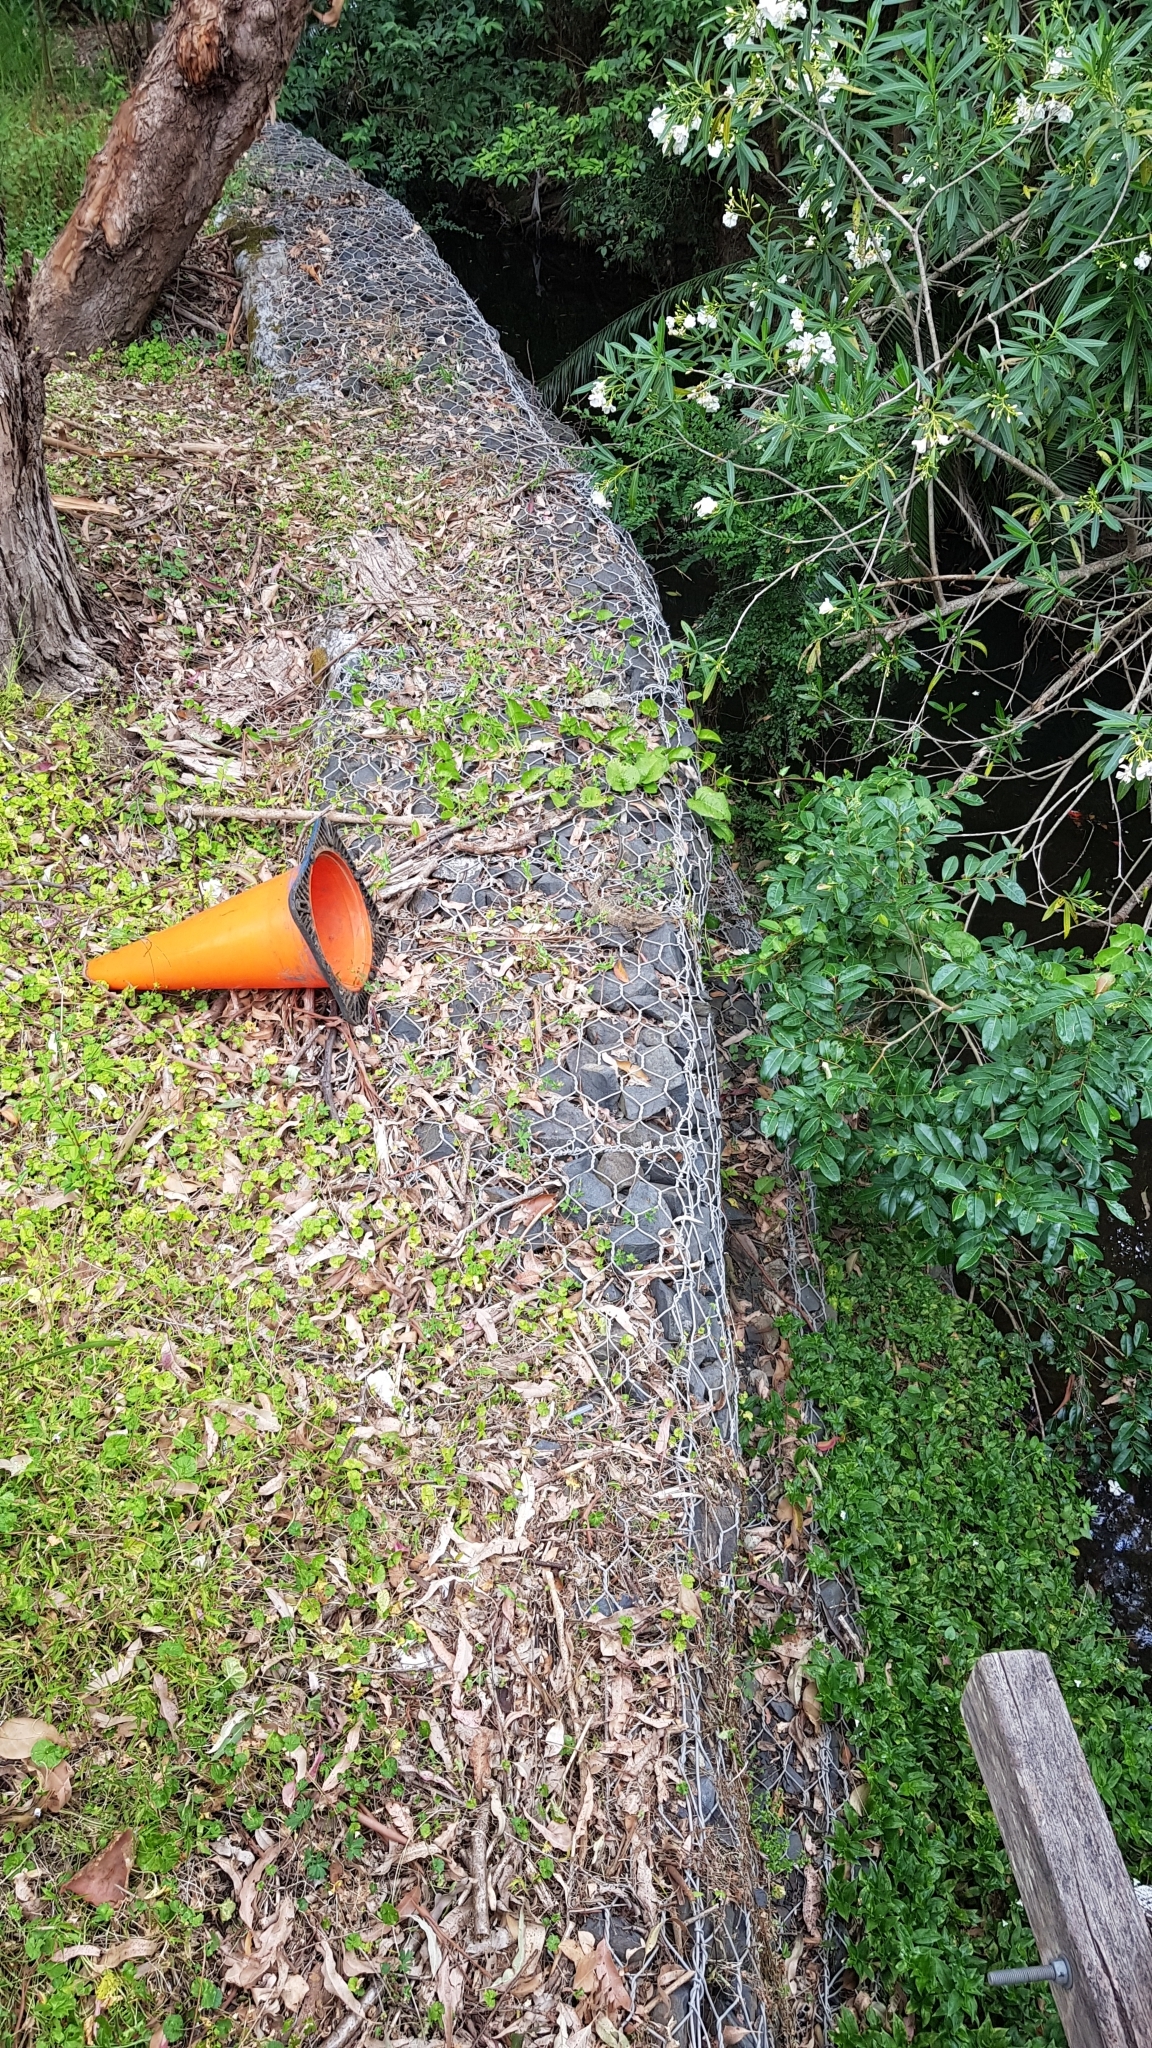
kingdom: Animalia
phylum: Chordata
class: Squamata
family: Agamidae
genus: Intellagama
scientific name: Intellagama lesueurii
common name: Eastern water dragon
